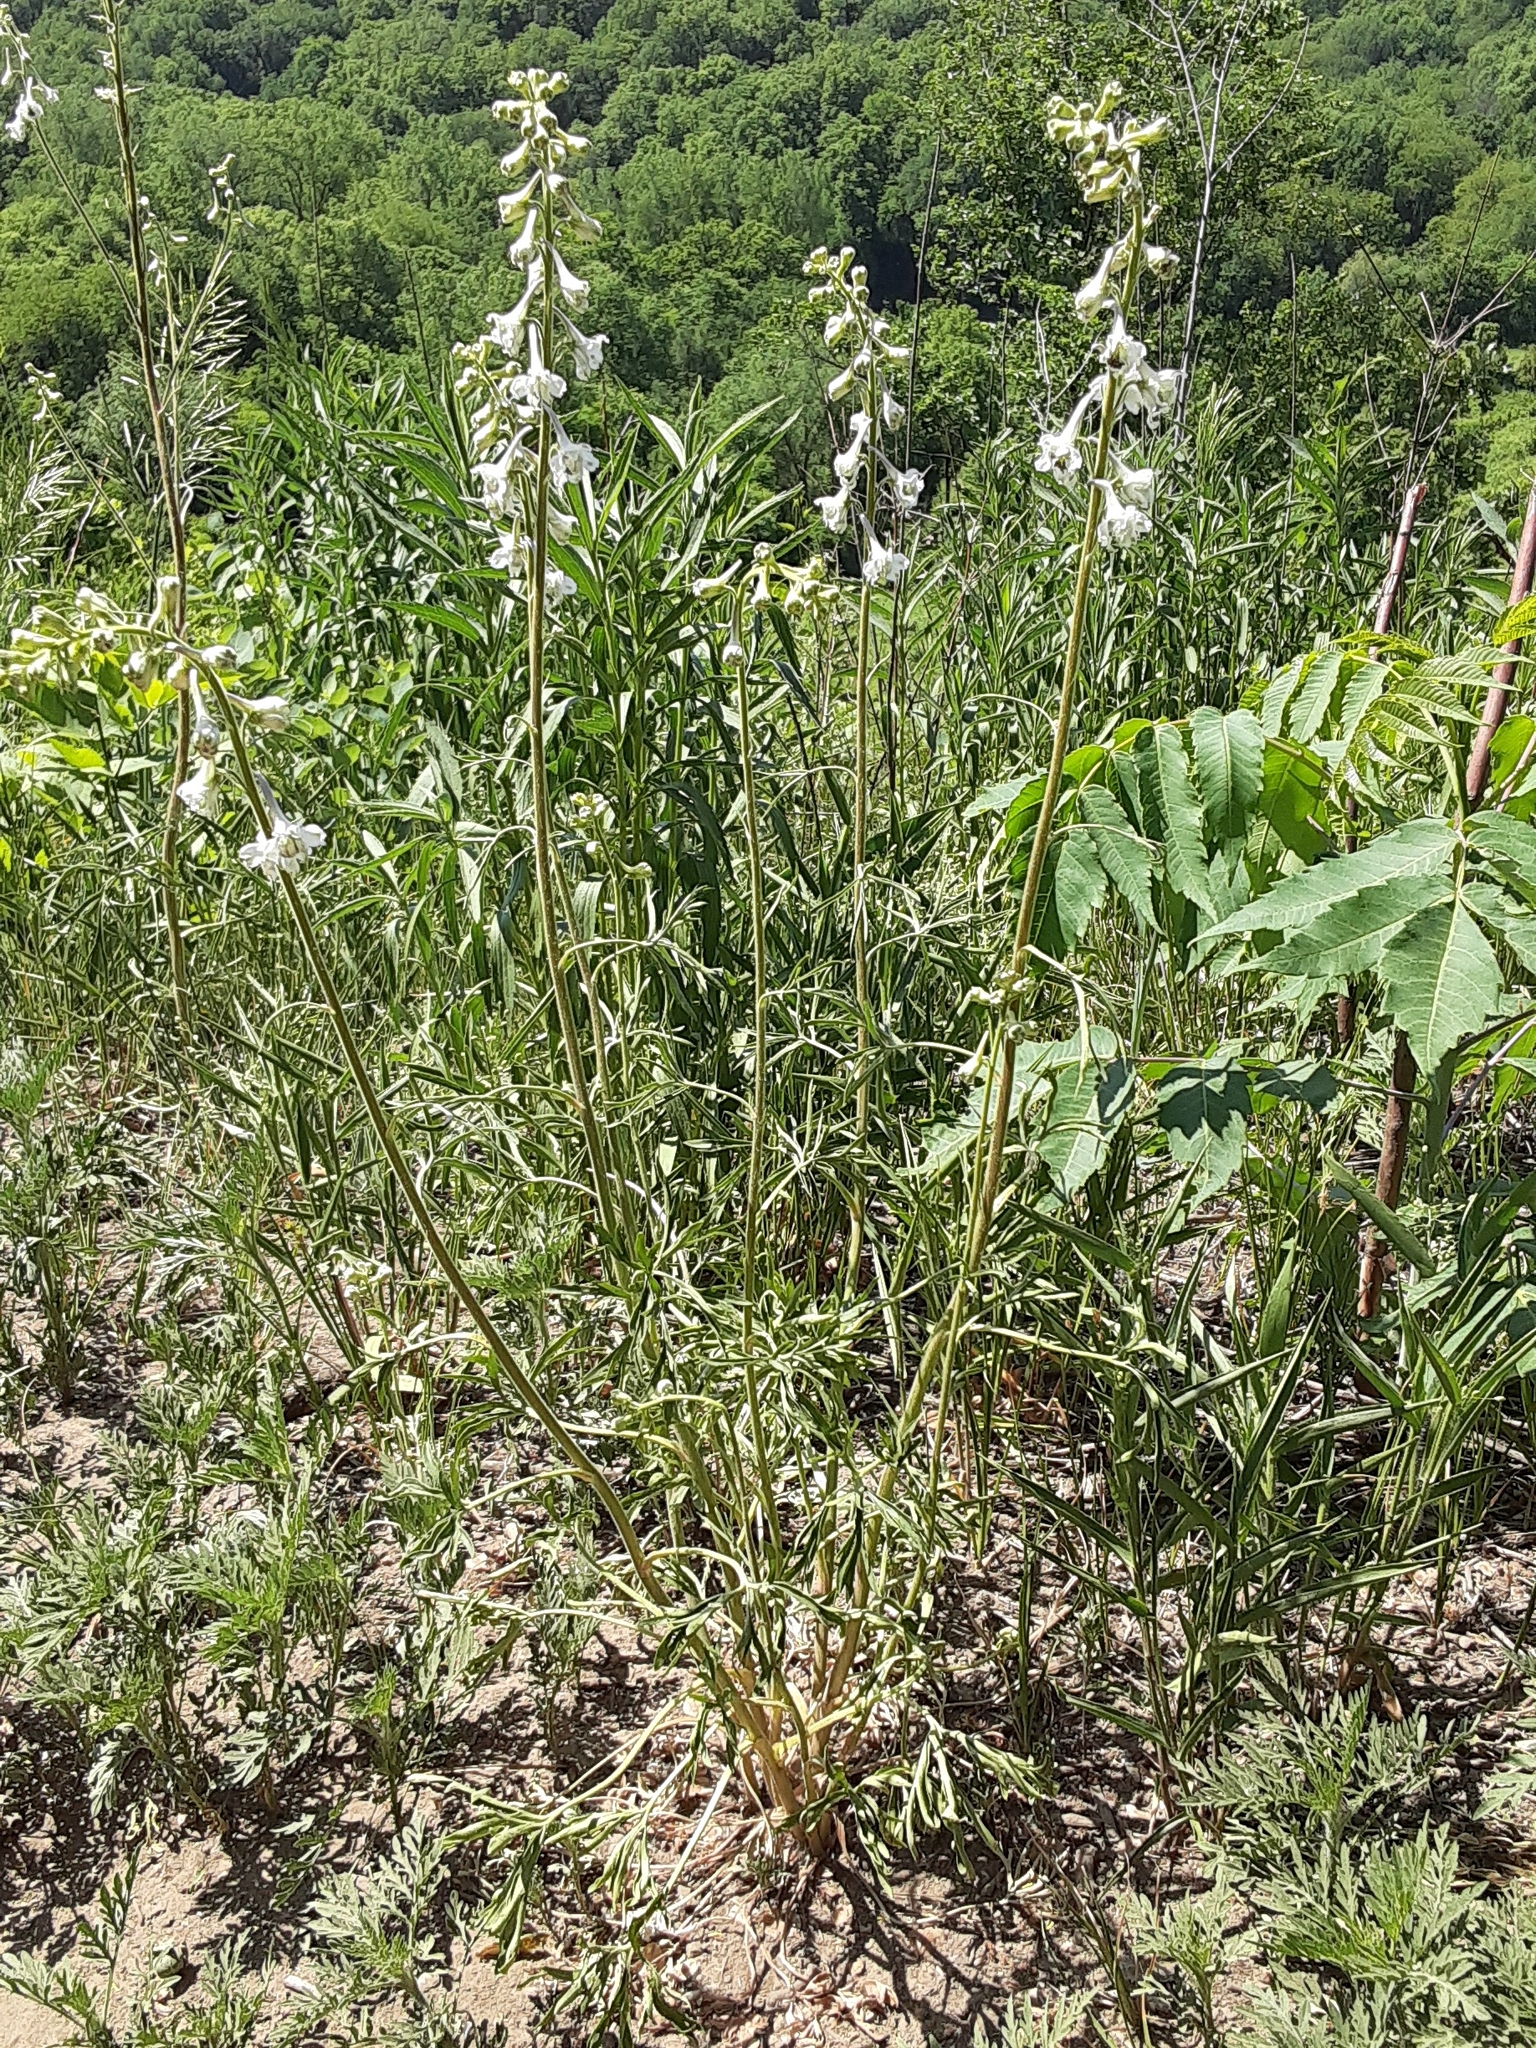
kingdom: Plantae
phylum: Tracheophyta
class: Magnoliopsida
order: Ranunculales
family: Ranunculaceae
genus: Delphinium
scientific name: Delphinium carolinianum
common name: Carolina larkspur
